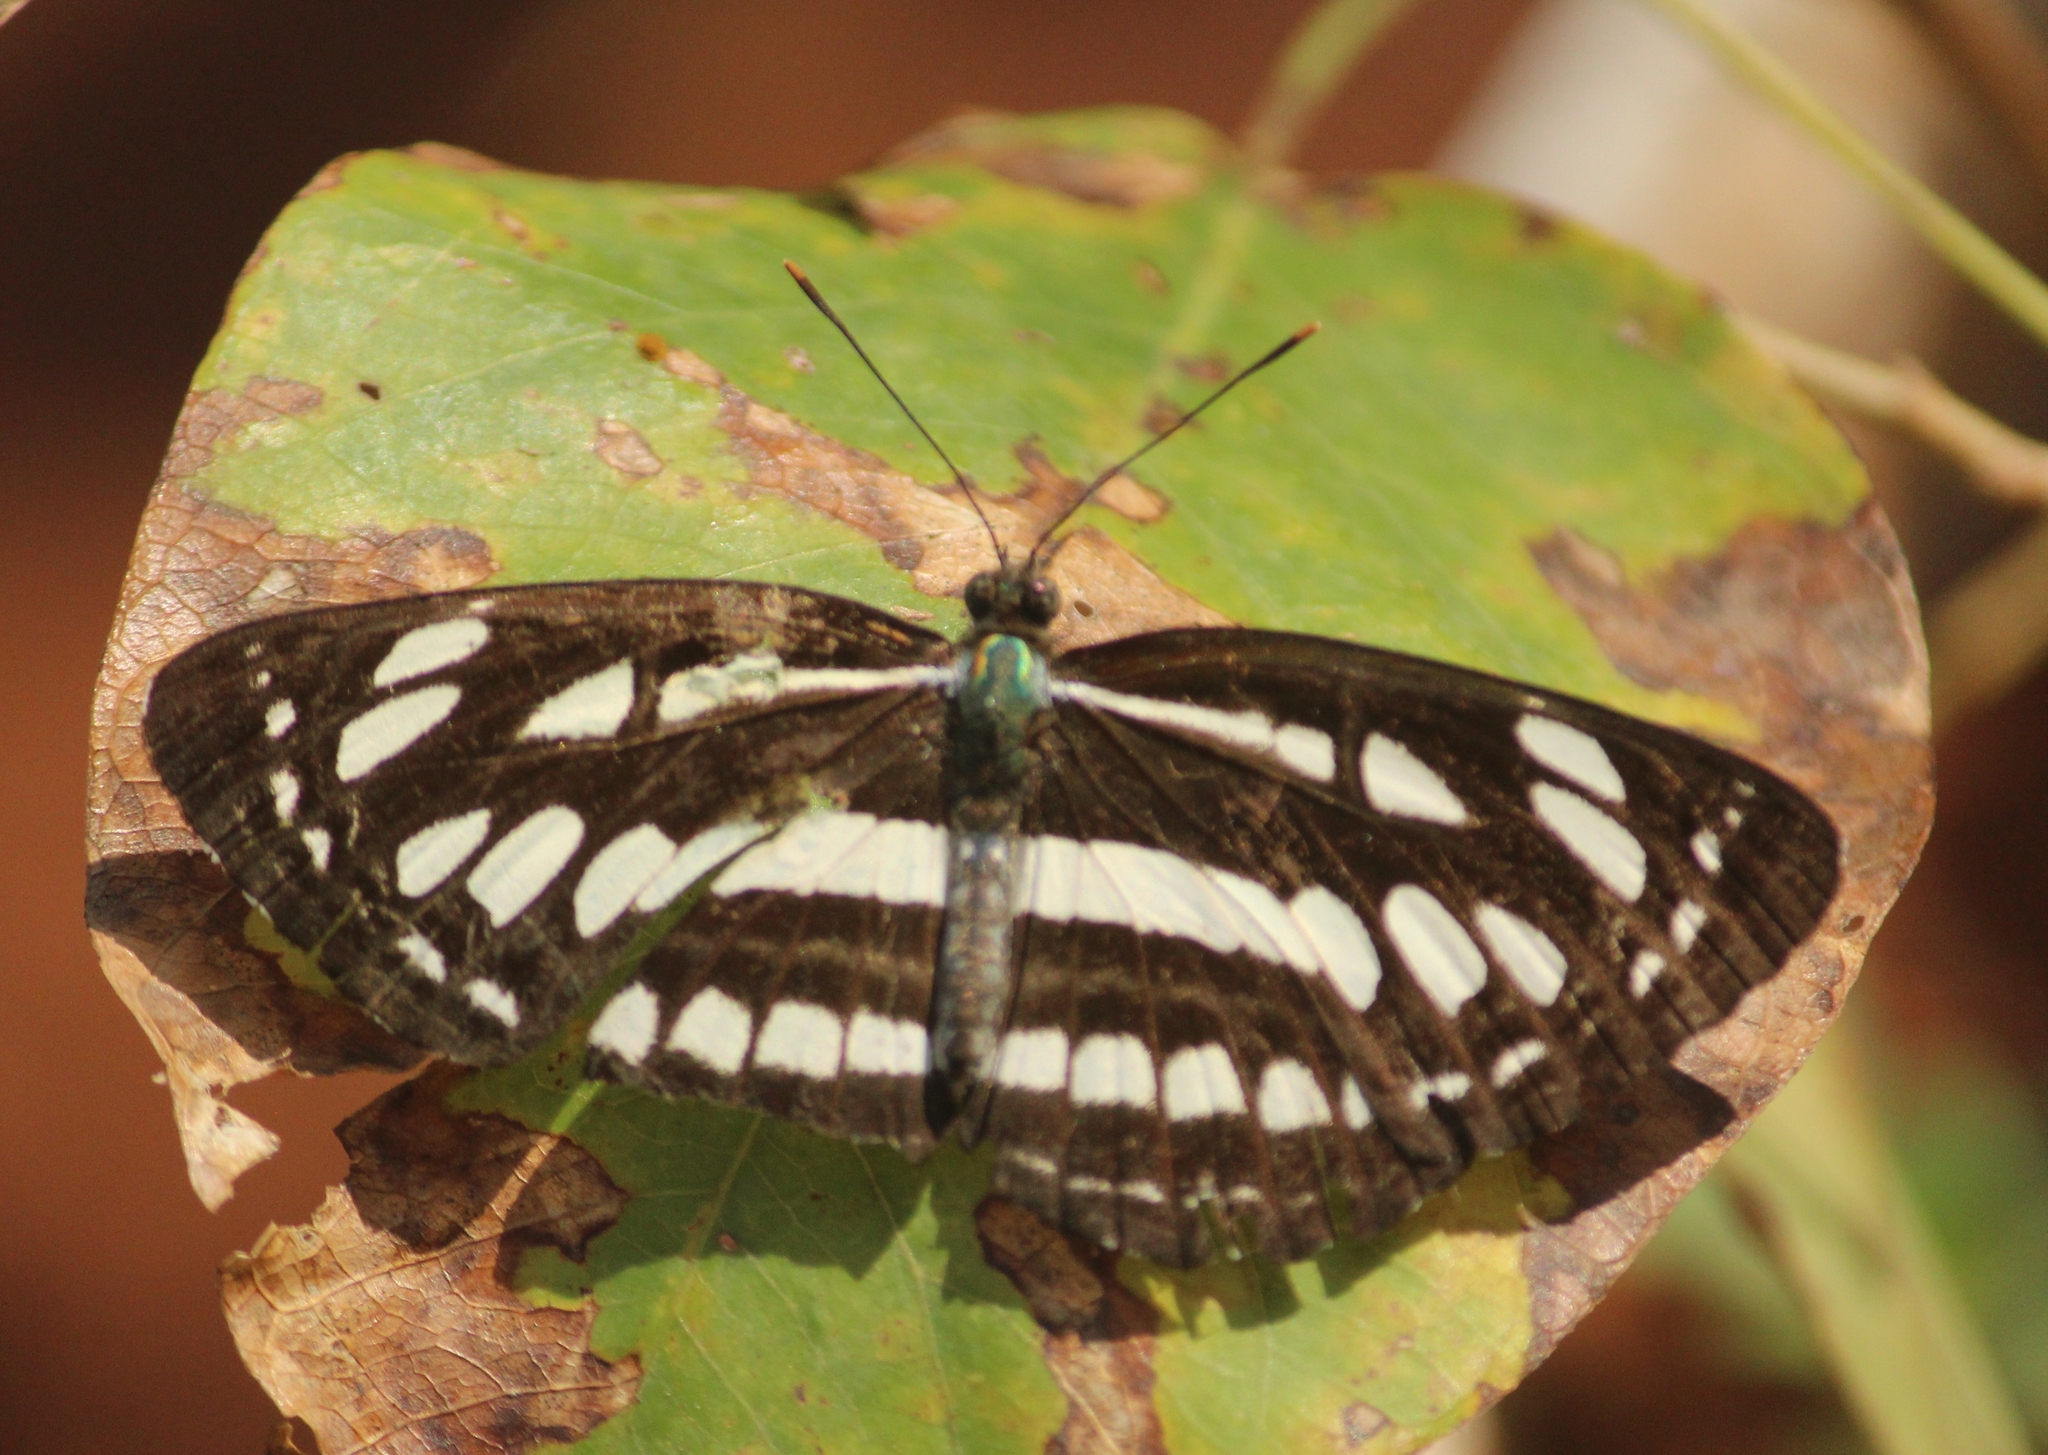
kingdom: Animalia
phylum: Arthropoda
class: Insecta
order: Lepidoptera
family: Nymphalidae
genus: Neptis
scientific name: Neptis hylas
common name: Common sailer
